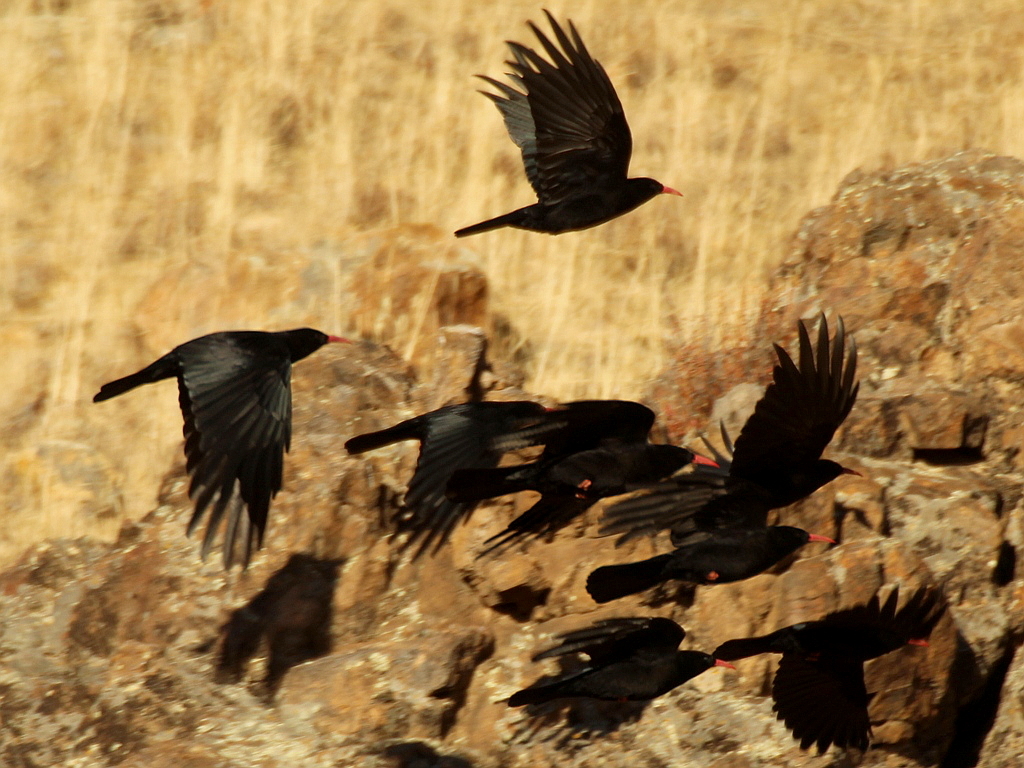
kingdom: Animalia
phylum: Chordata
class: Aves
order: Passeriformes
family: Corvidae
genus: Pyrrhocorax
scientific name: Pyrrhocorax pyrrhocorax
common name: Red-billed chough
